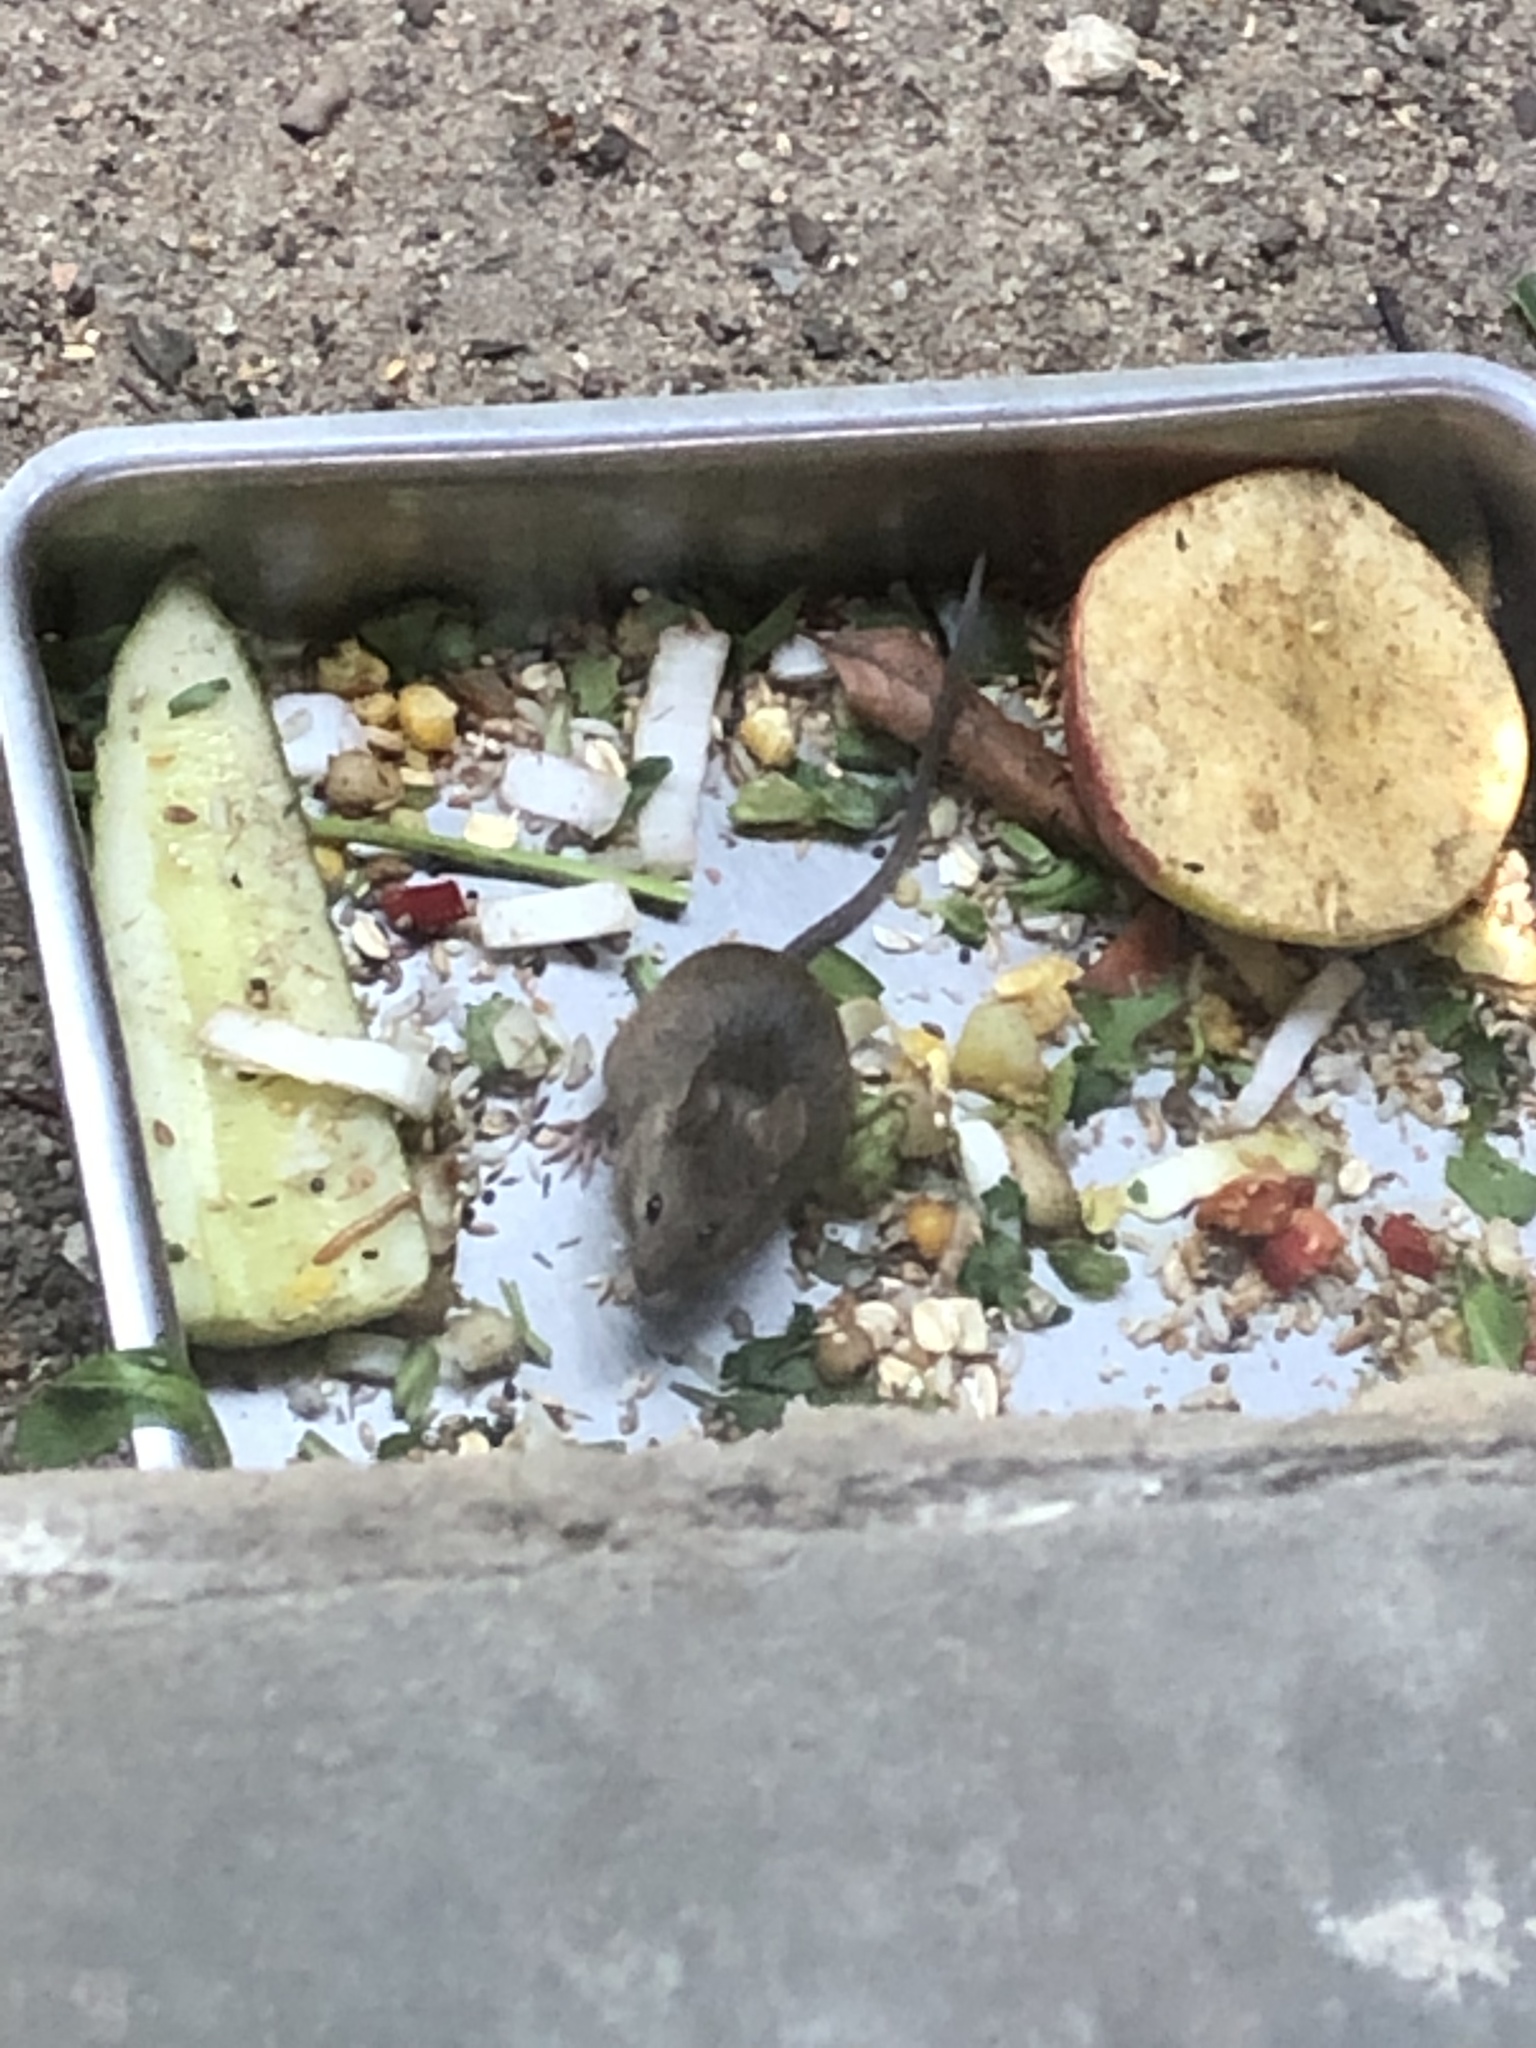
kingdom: Animalia
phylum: Chordata
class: Mammalia
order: Rodentia
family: Muridae
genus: Mus
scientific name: Mus musculus
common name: House mouse
